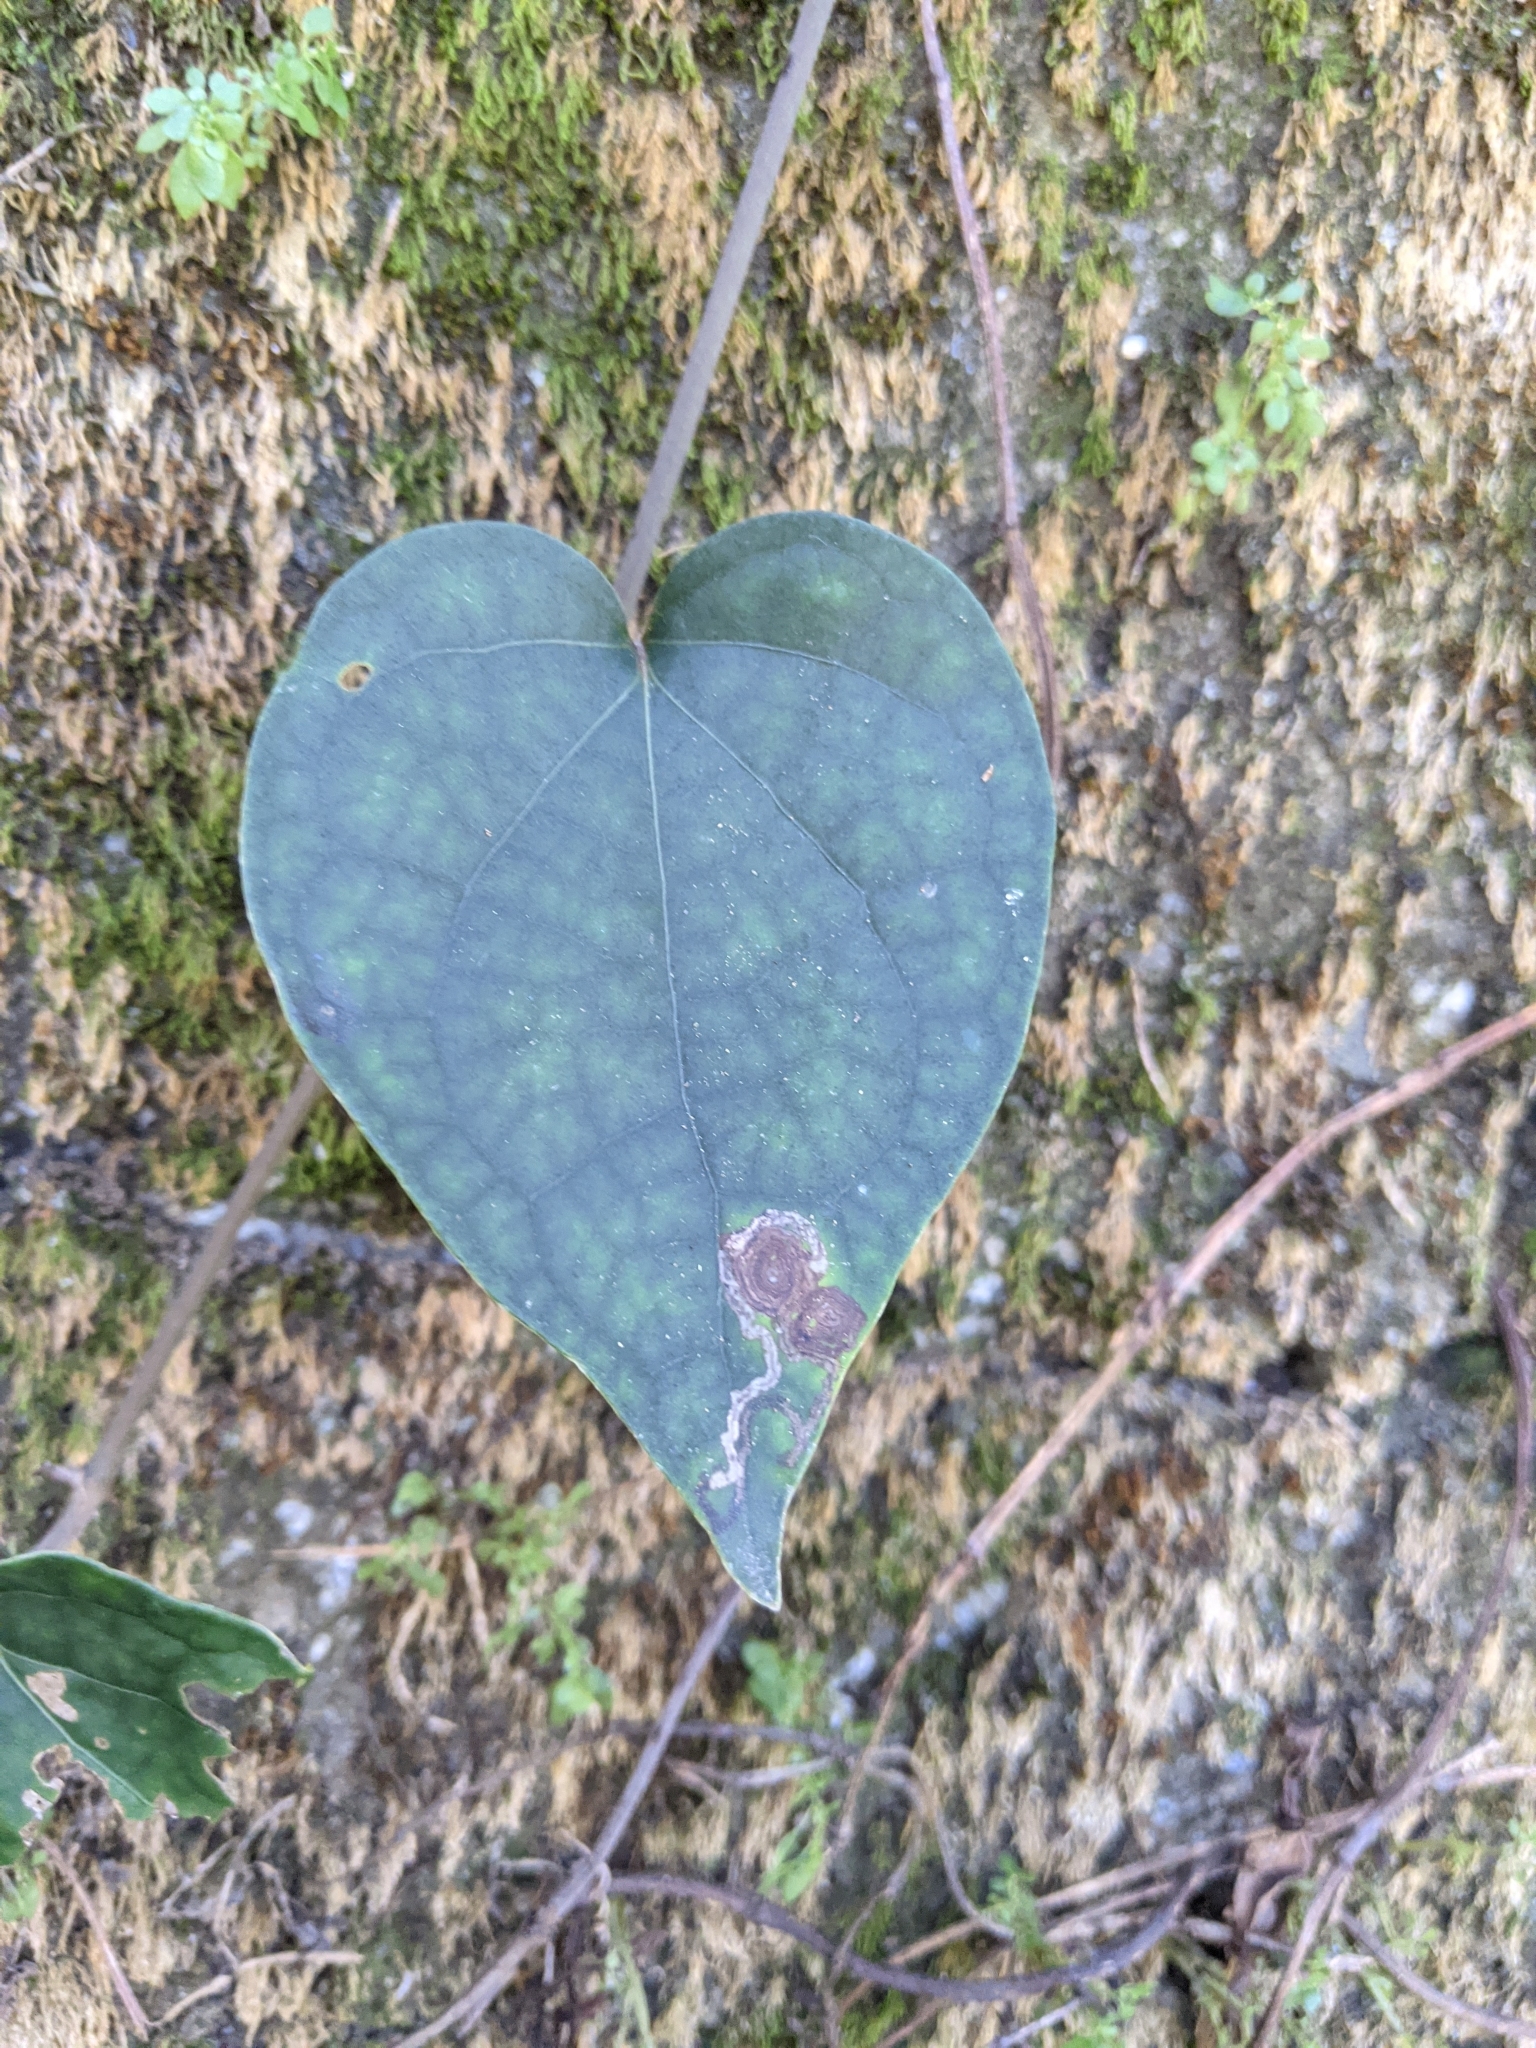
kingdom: Plantae
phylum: Tracheophyta
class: Magnoliopsida
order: Piperales
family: Piperaceae
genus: Piper
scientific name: Piper kadsura
